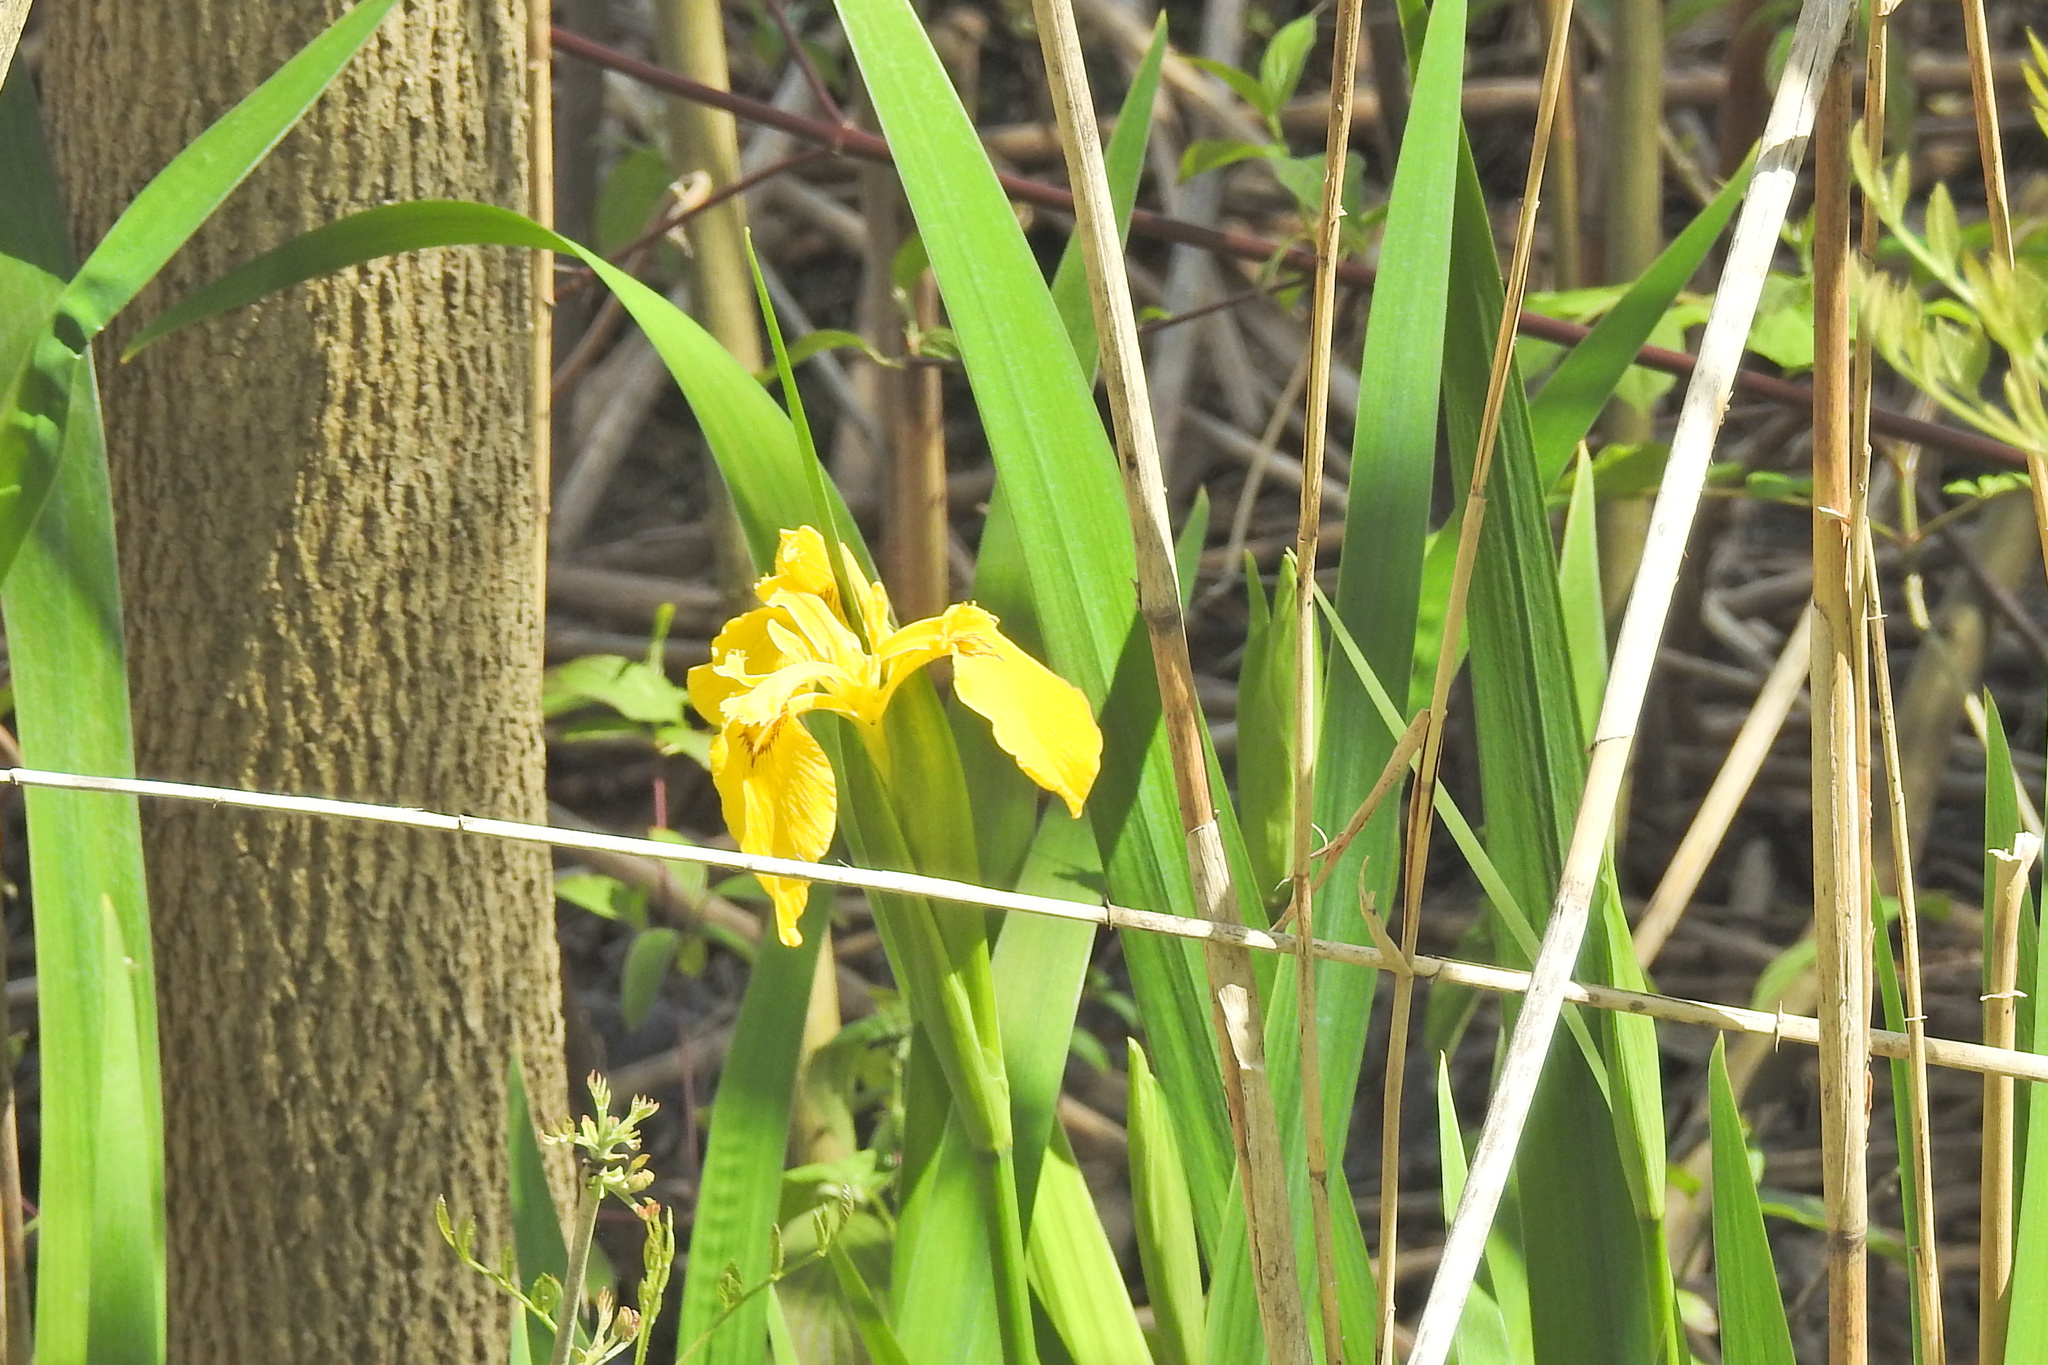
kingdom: Plantae
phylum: Tracheophyta
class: Liliopsida
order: Asparagales
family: Iridaceae
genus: Iris
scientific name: Iris pseudacorus
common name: Yellow flag
